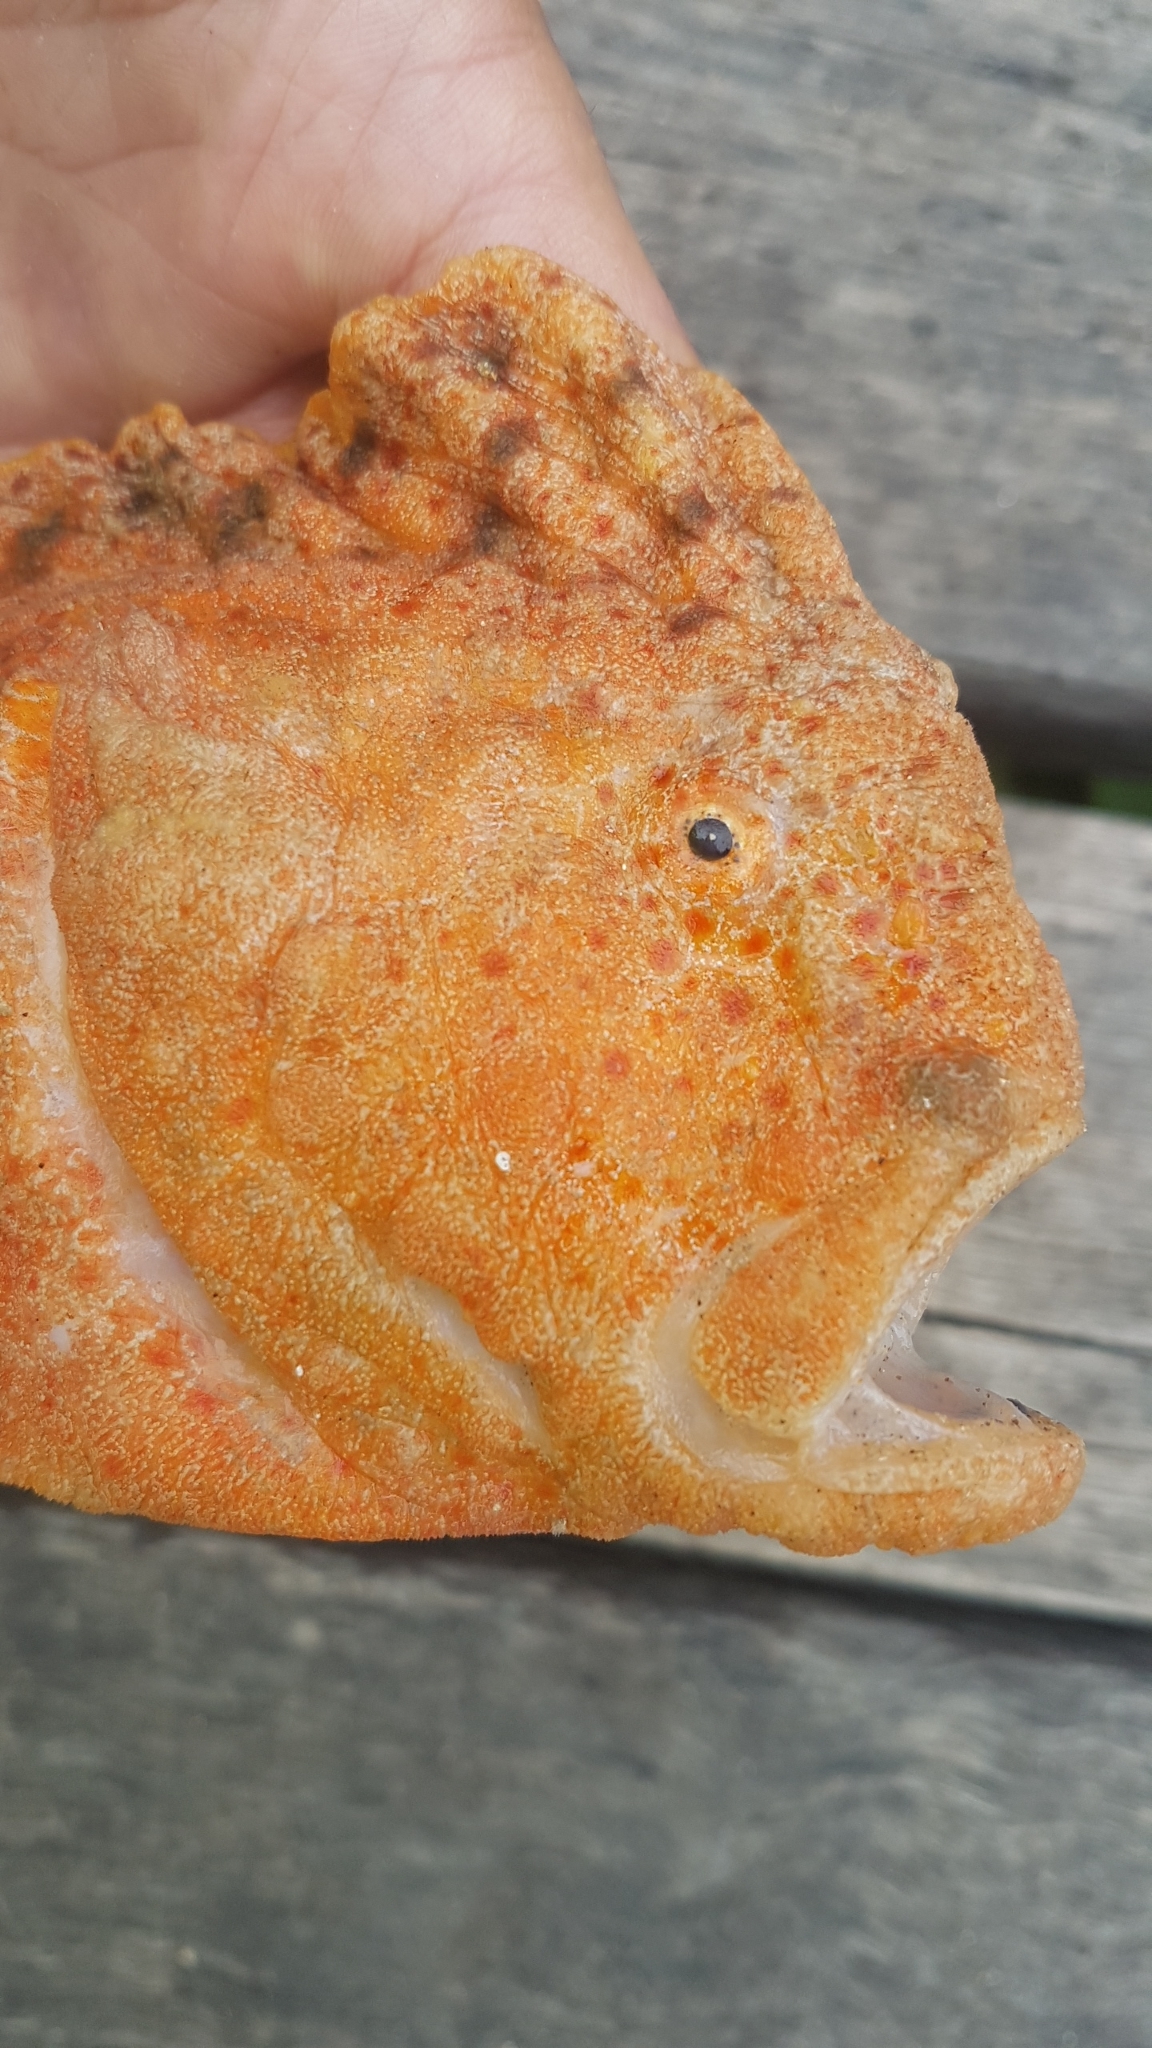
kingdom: Animalia
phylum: Chordata
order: Scorpaeniformes
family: Pataecidae
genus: Aetapcus
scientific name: Aetapcus maculatus
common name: Warty prowfish
